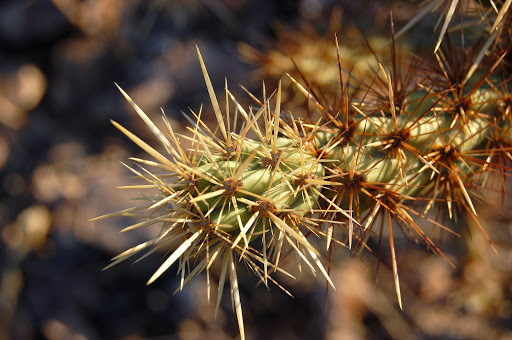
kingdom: Plantae
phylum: Tracheophyta
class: Magnoliopsida
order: Caryophyllales
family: Cactaceae
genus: Cylindropuntia
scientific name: Cylindropuntia acanthocarpa
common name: Buckhorn cholla
